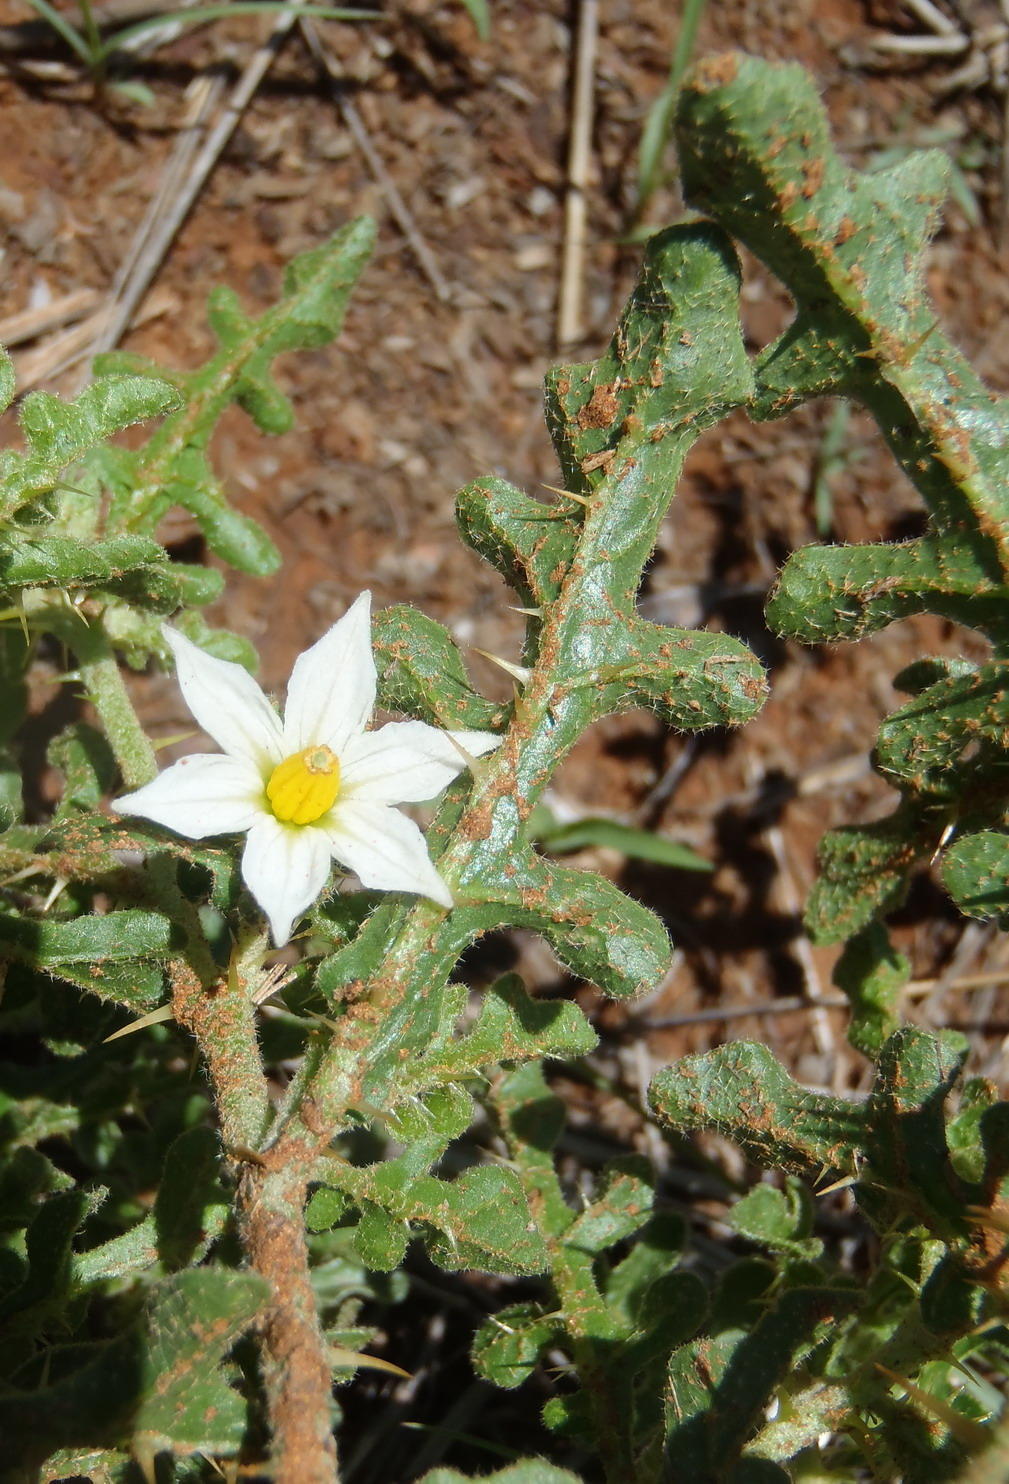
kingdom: Plantae
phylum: Tracheophyta
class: Magnoliopsida
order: Solanales
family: Solanaceae
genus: Solanum
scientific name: Solanum supinum
